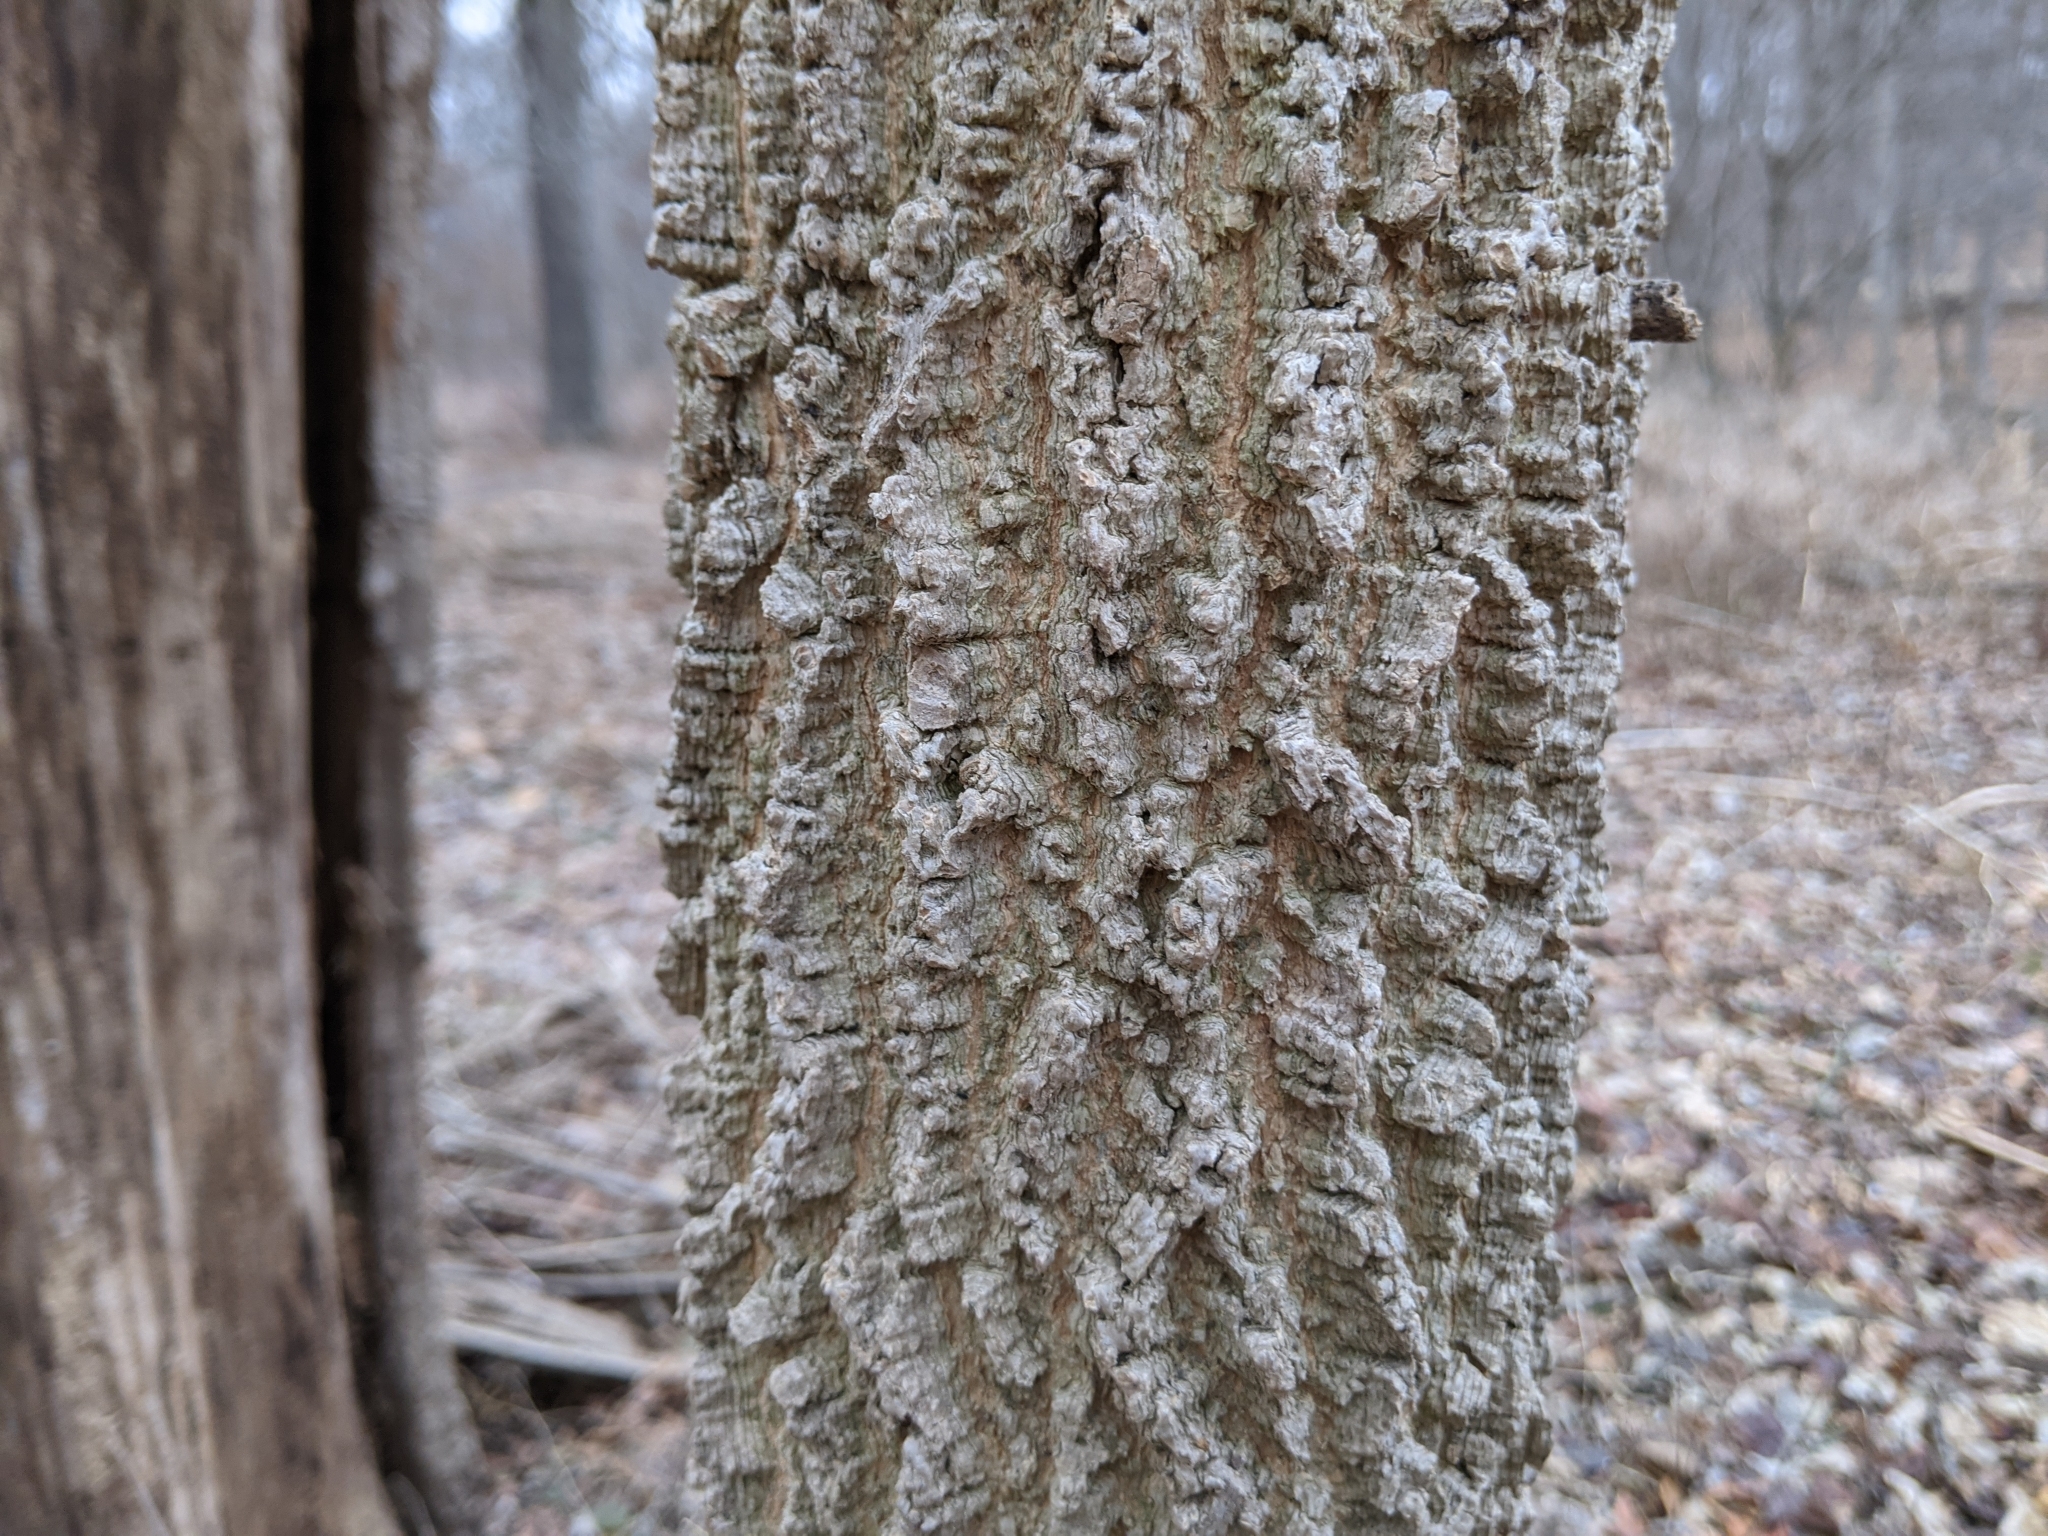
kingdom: Plantae
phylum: Tracheophyta
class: Magnoliopsida
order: Rosales
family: Cannabaceae
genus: Celtis
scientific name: Celtis occidentalis
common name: Common hackberry
